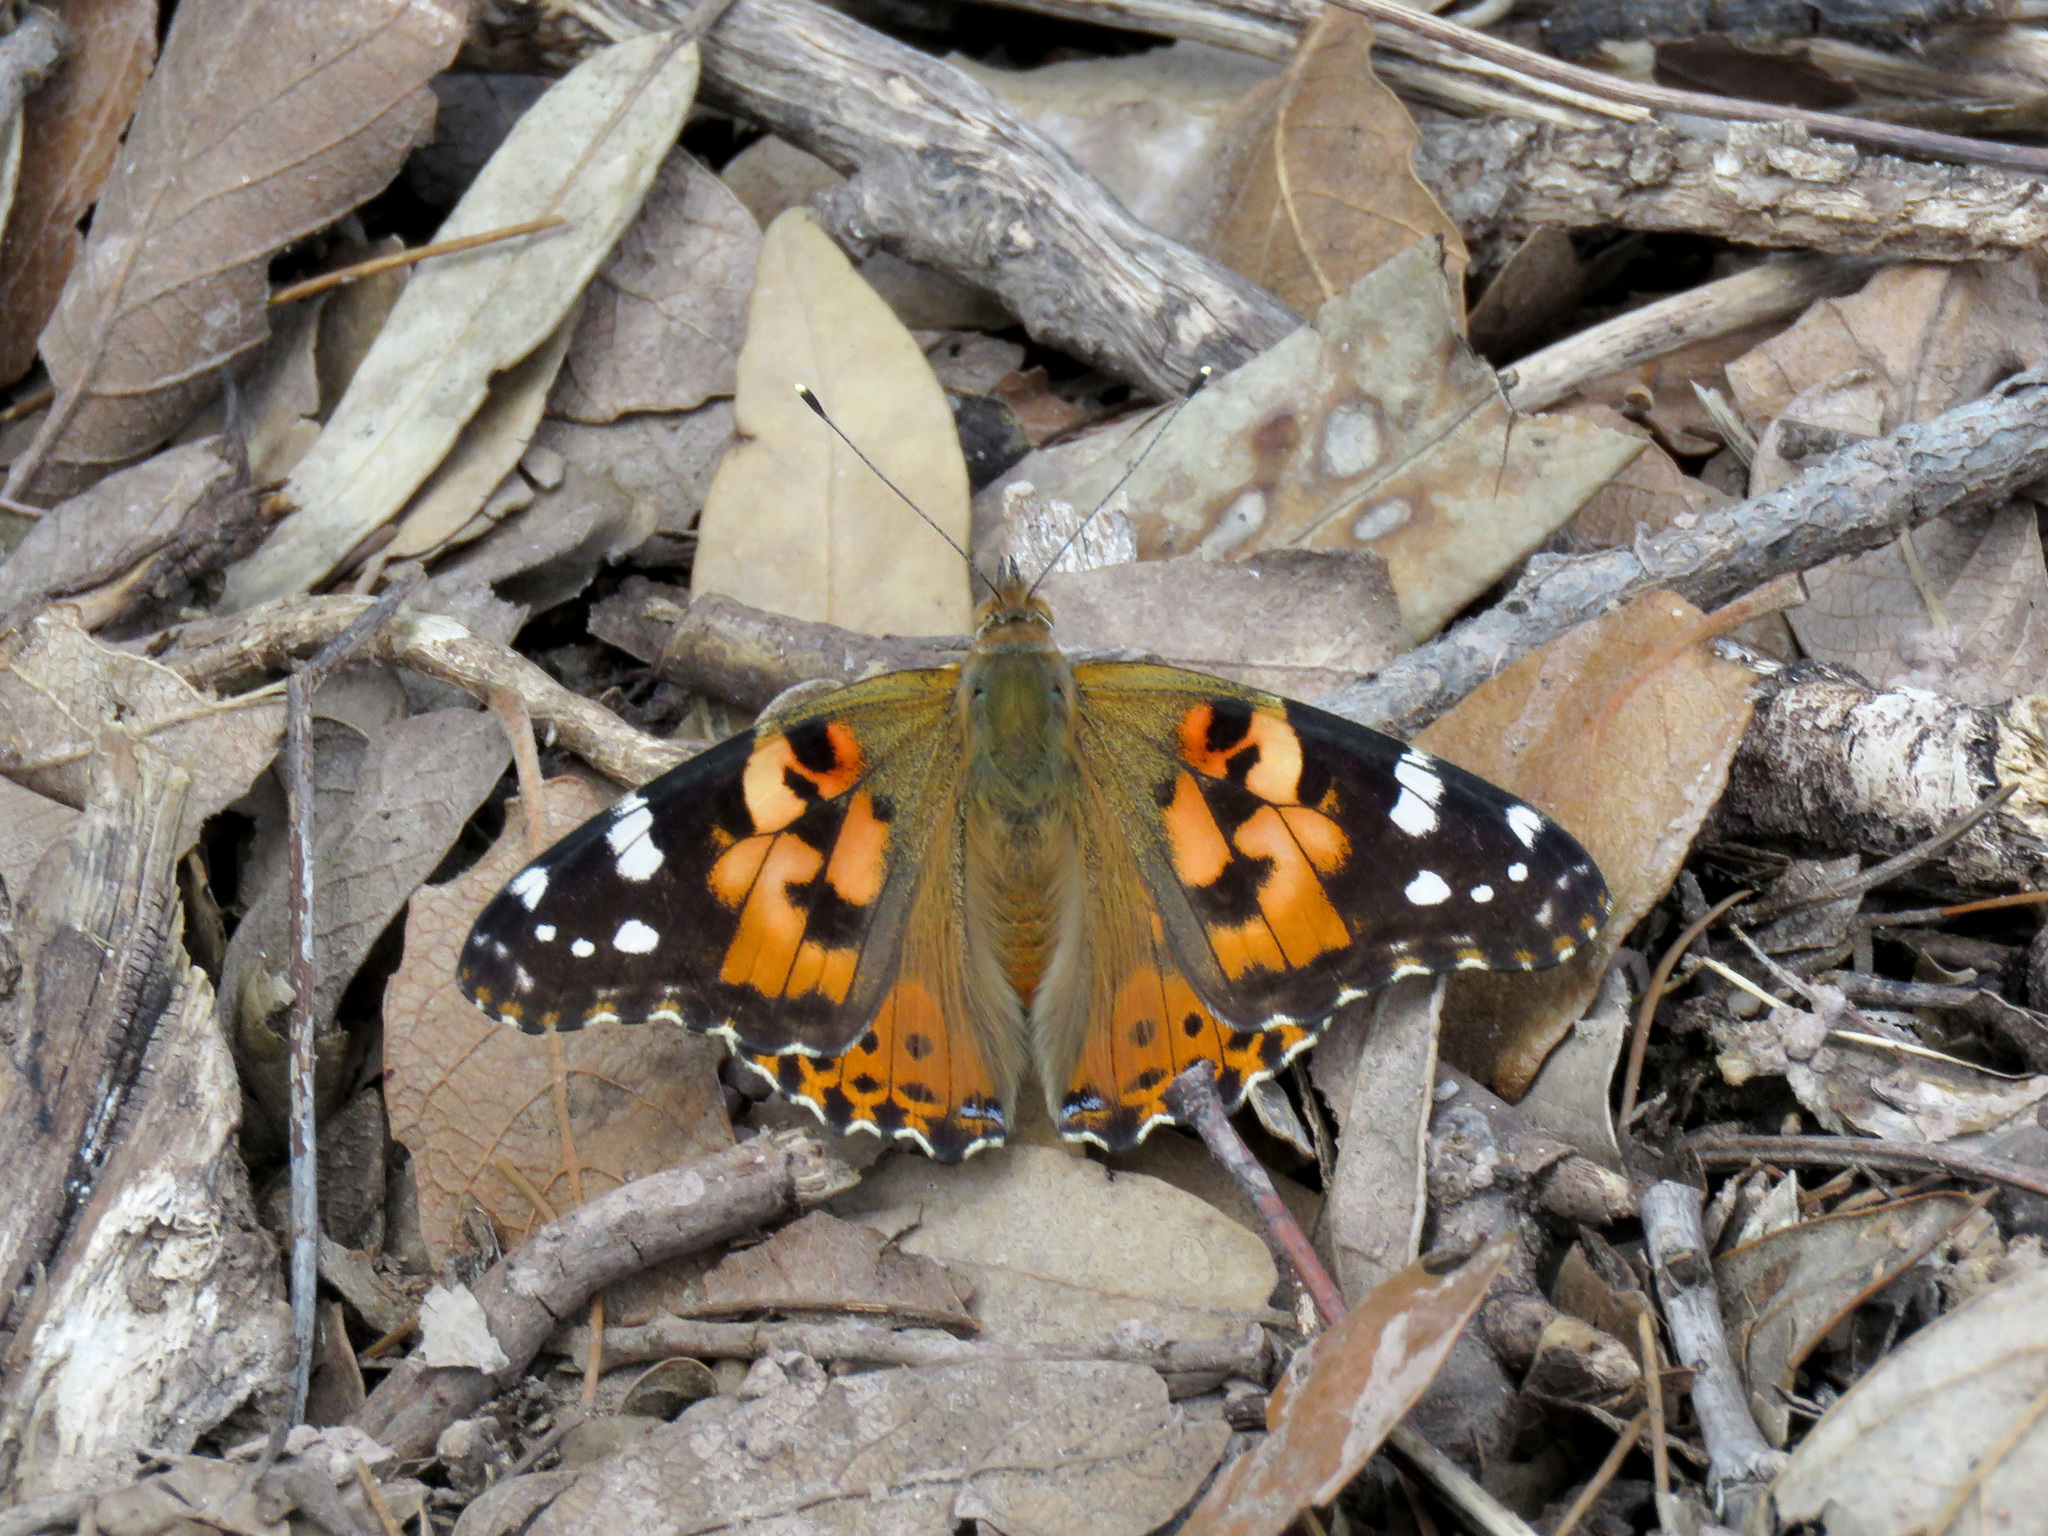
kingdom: Animalia
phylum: Arthropoda
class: Insecta
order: Lepidoptera
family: Nymphalidae
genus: Vanessa
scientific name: Vanessa cardui
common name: Painted lady
